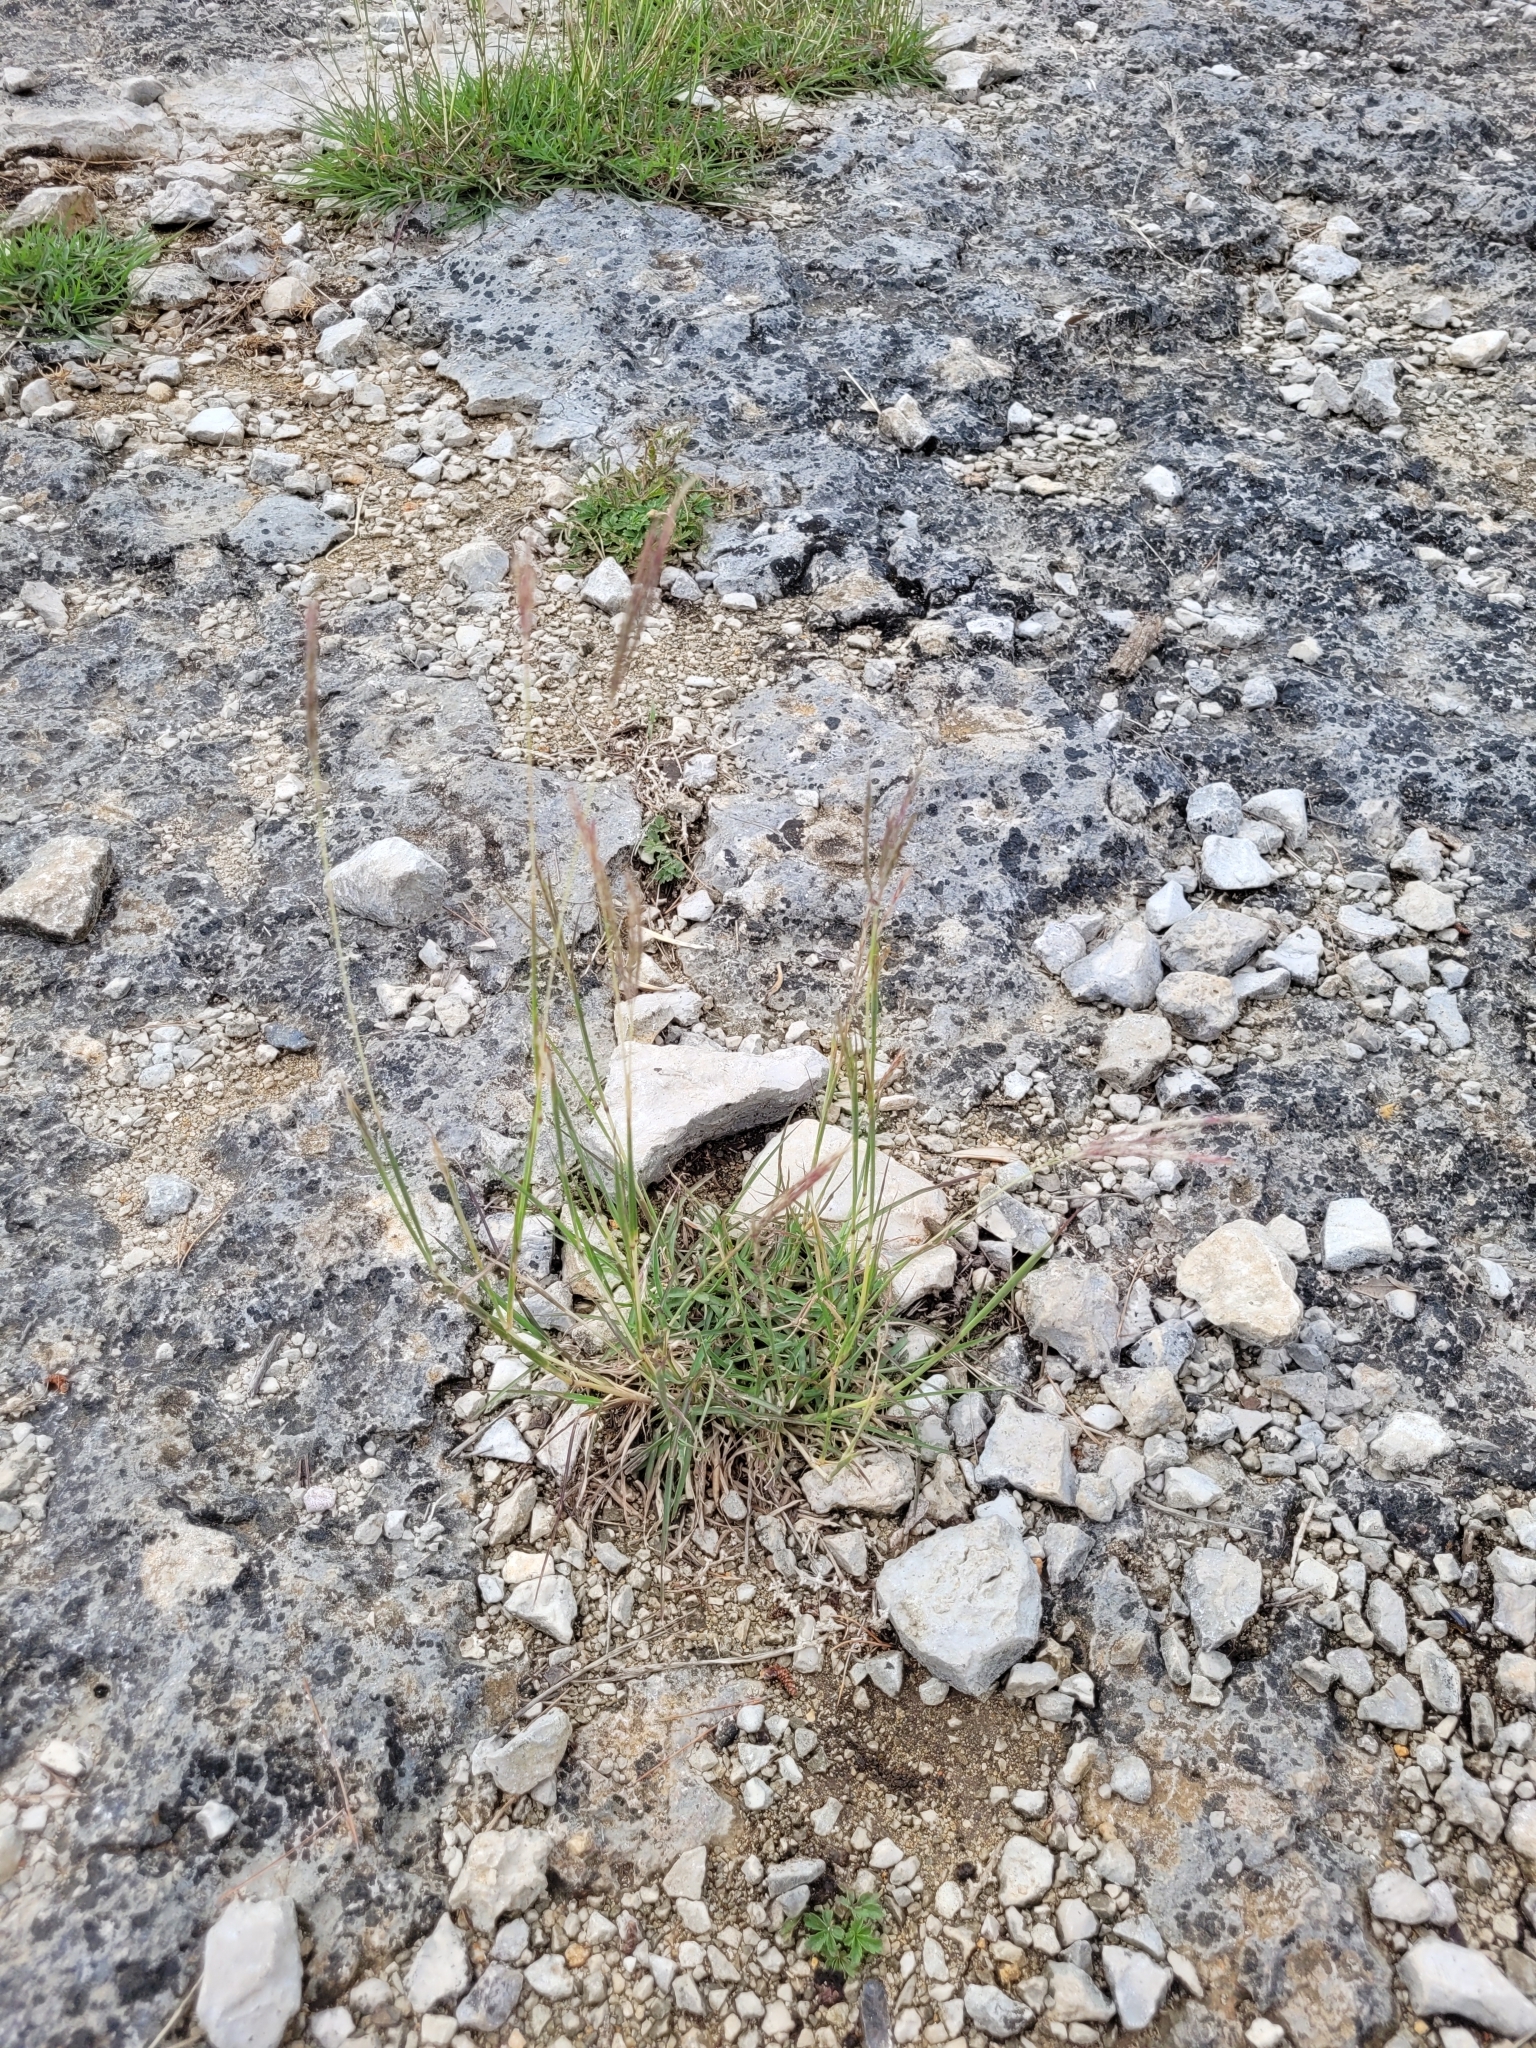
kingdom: Plantae
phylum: Tracheophyta
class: Liliopsida
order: Poales
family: Poaceae
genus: Bothriochloa
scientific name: Bothriochloa ischaemum
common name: Yellow bluestem
